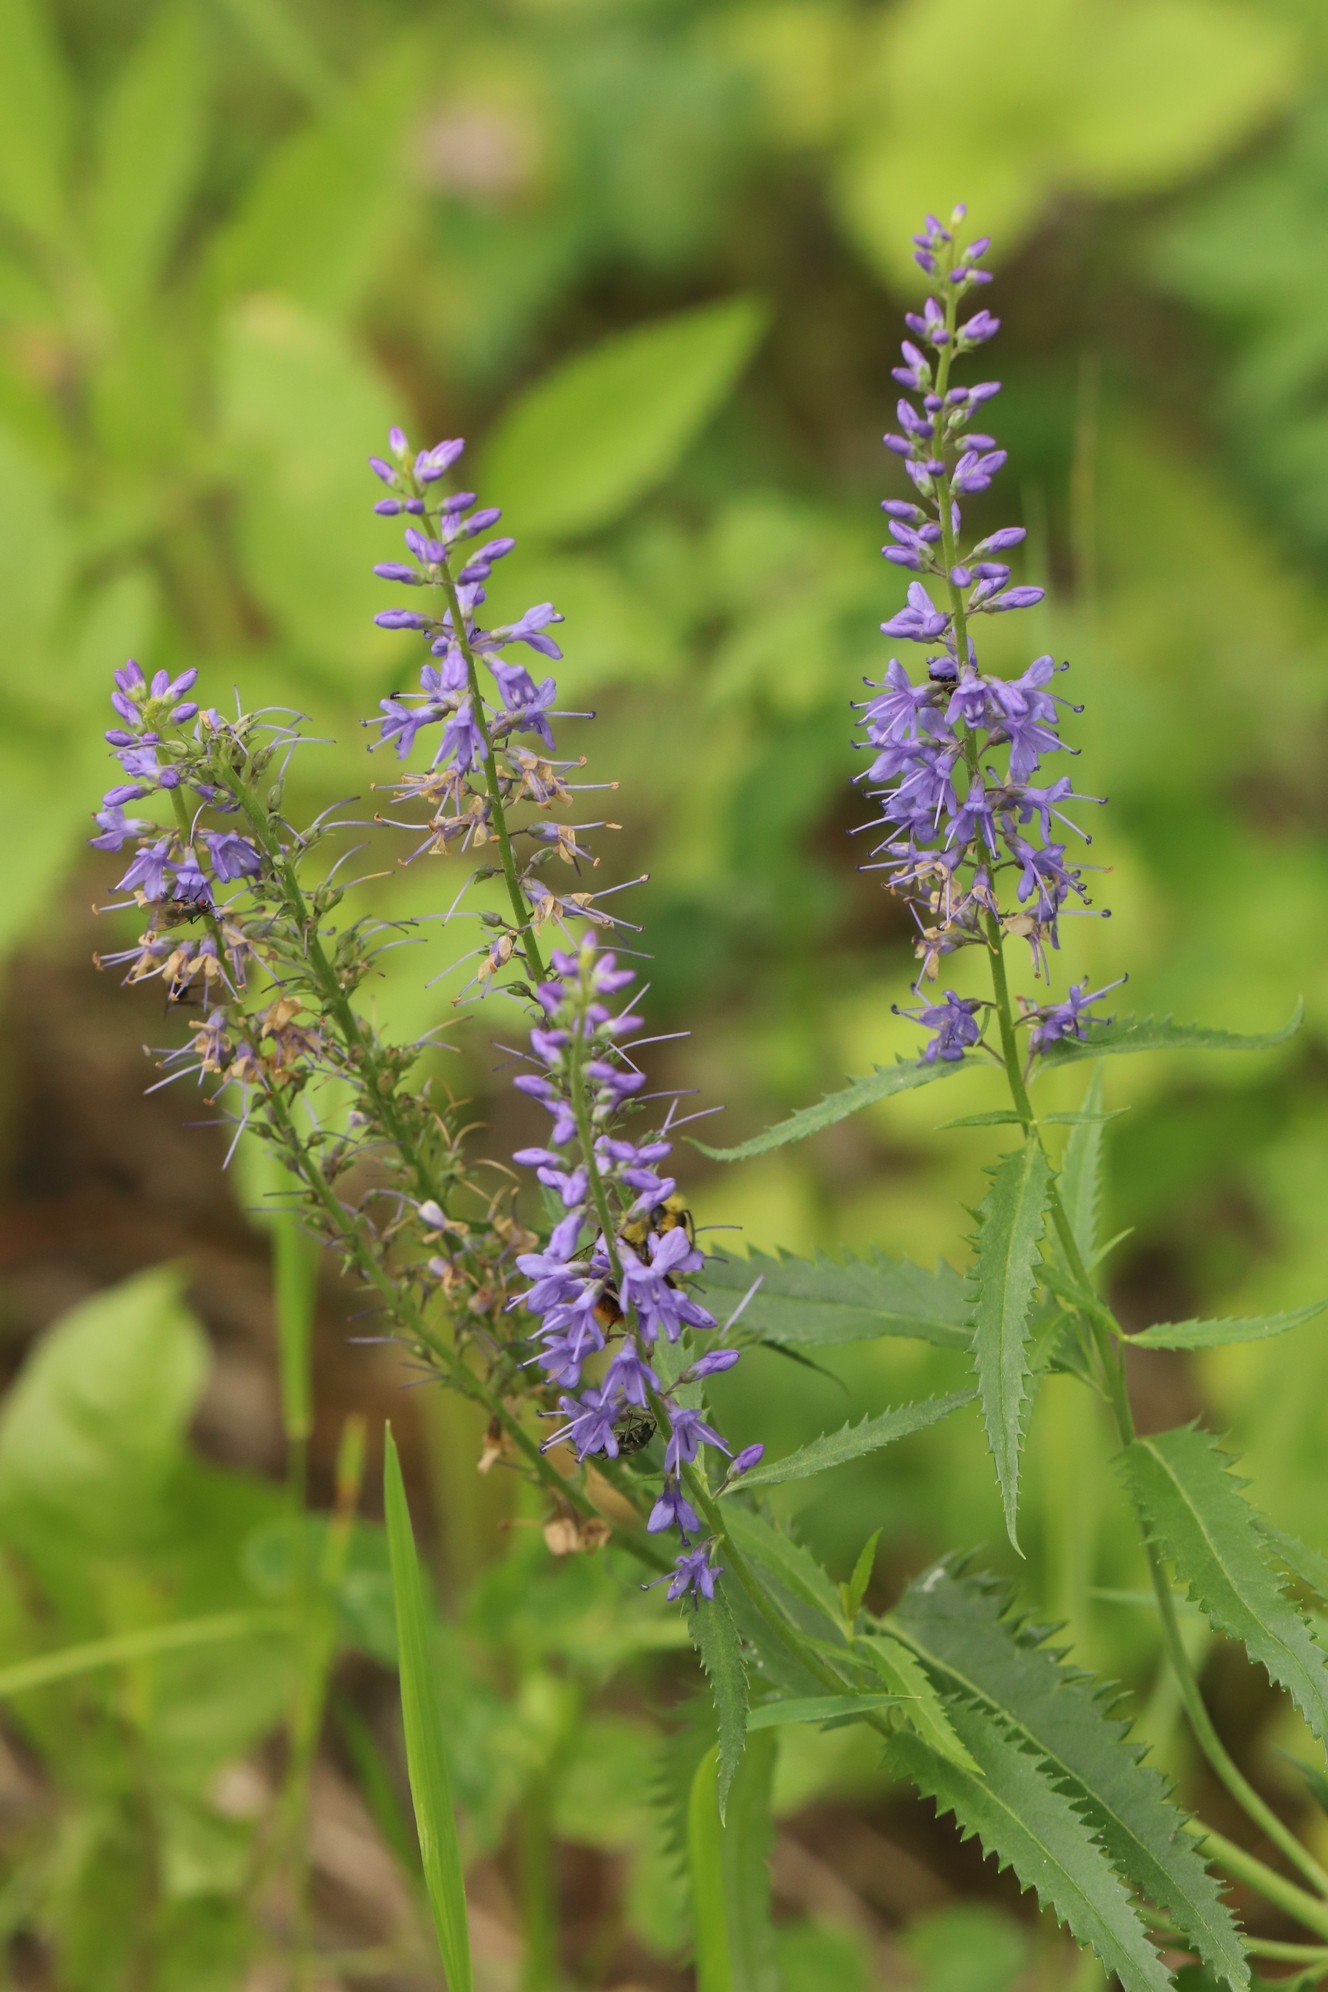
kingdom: Plantae
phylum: Tracheophyta
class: Magnoliopsida
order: Lamiales
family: Plantaginaceae
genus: Veronica
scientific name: Veronica longifolia
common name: Garden speedwell
